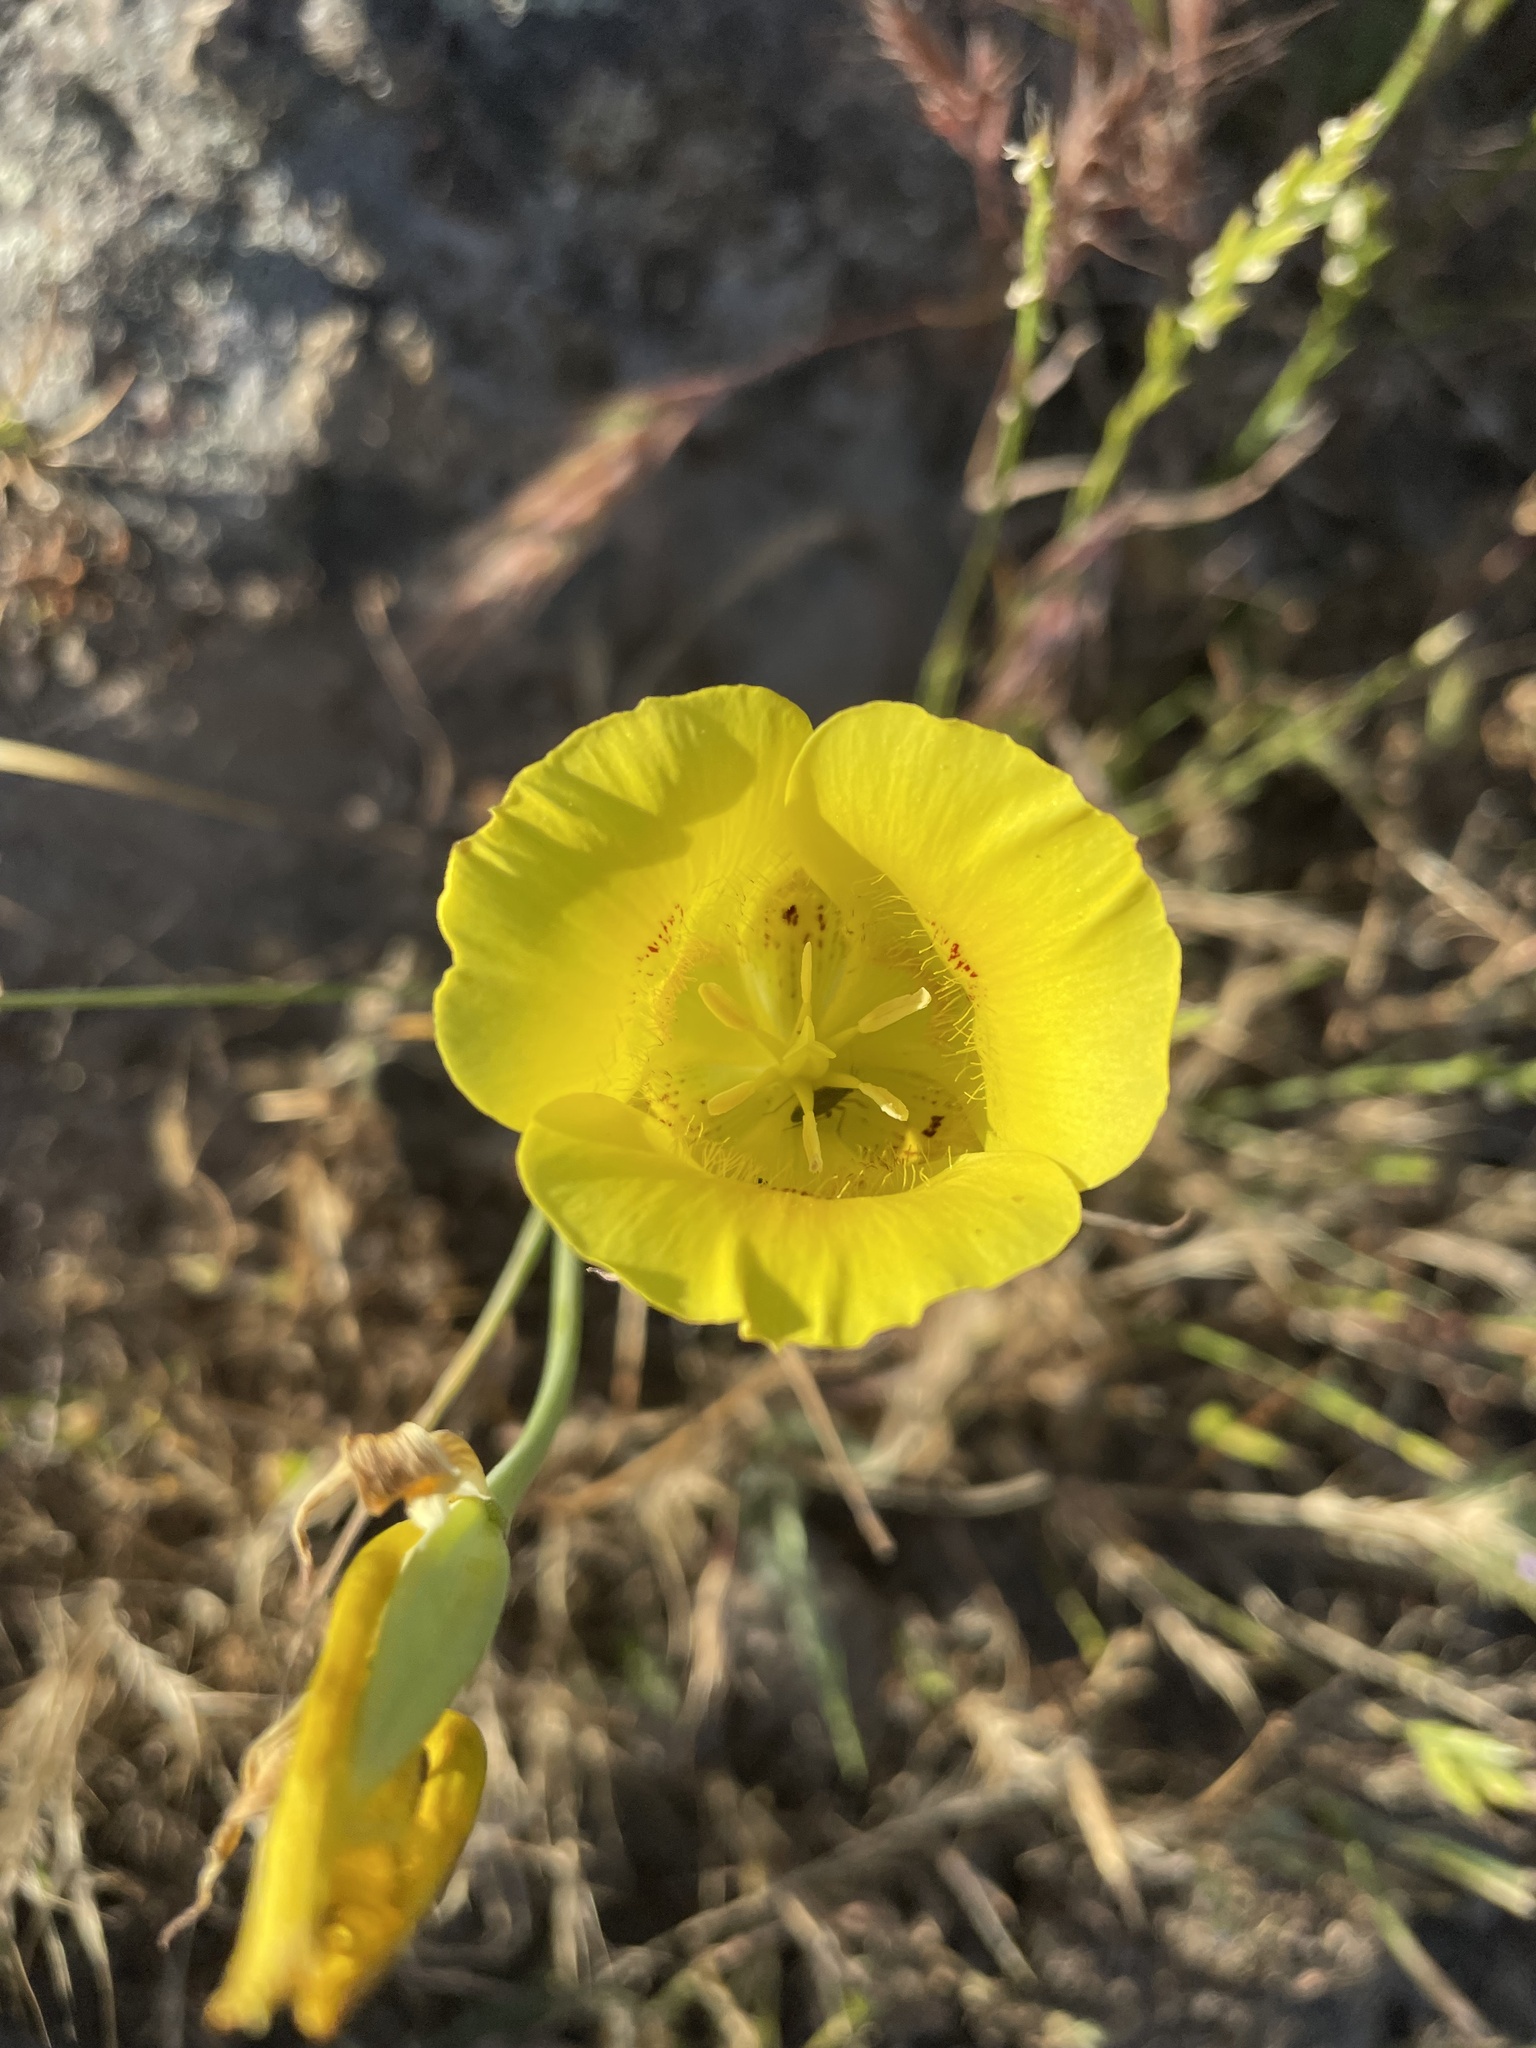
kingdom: Plantae
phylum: Tracheophyta
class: Liliopsida
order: Liliales
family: Liliaceae
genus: Calochortus
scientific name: Calochortus luteus
